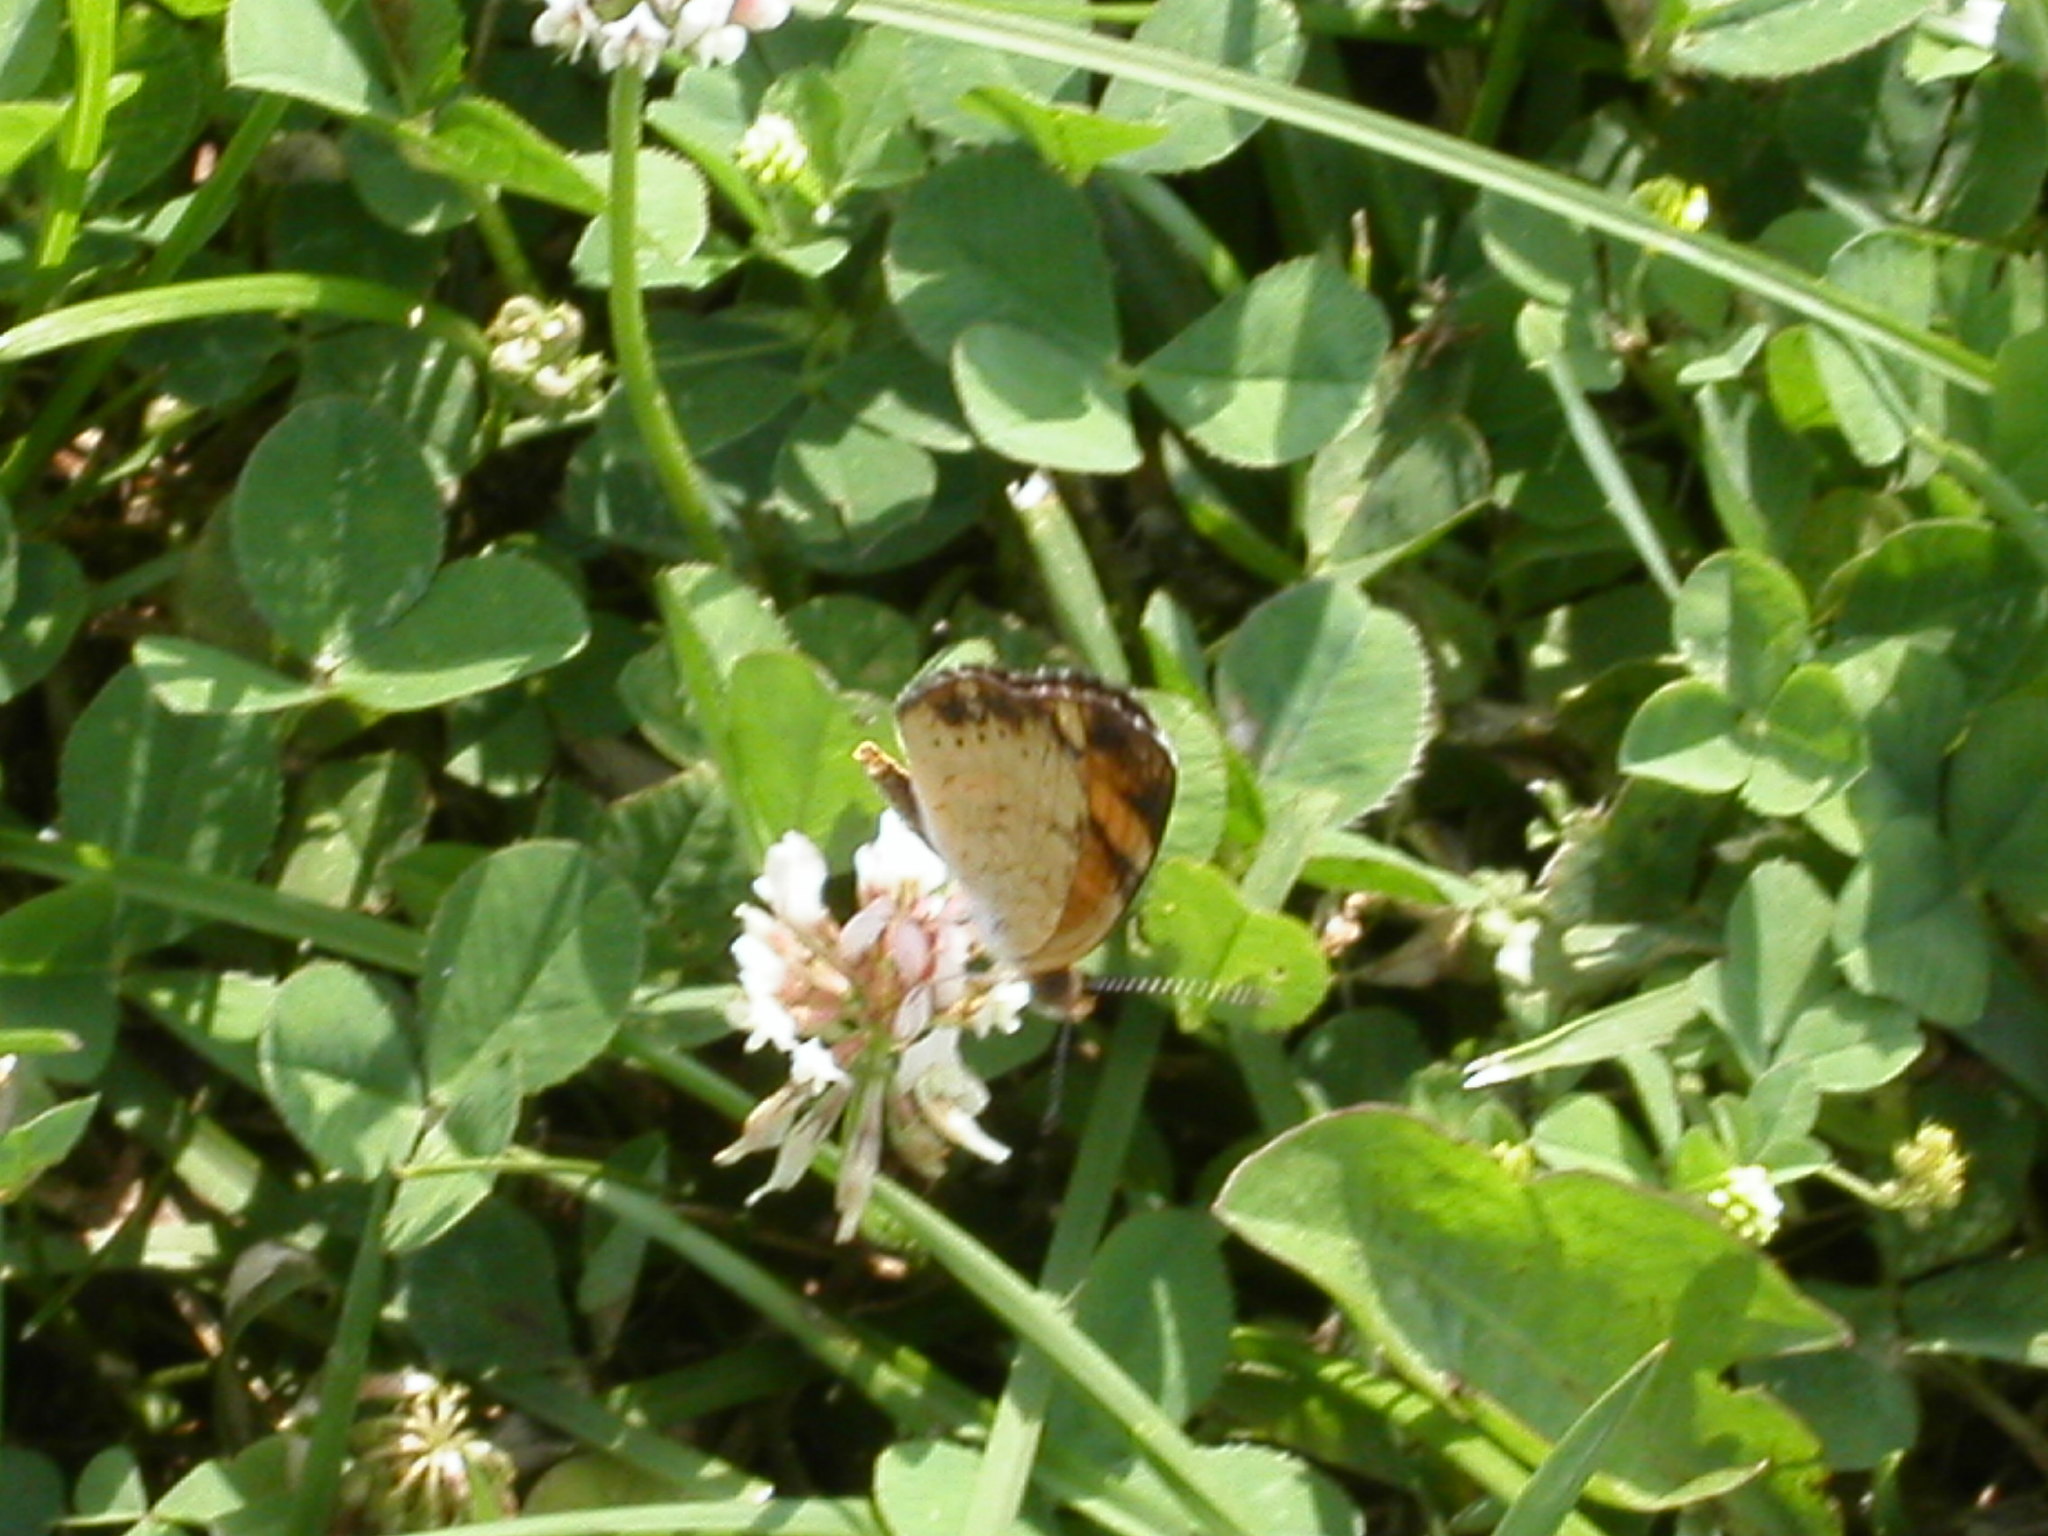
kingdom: Animalia
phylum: Arthropoda
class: Insecta
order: Lepidoptera
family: Nymphalidae
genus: Phyciodes
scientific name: Phyciodes tharos
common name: Pearl crescent
